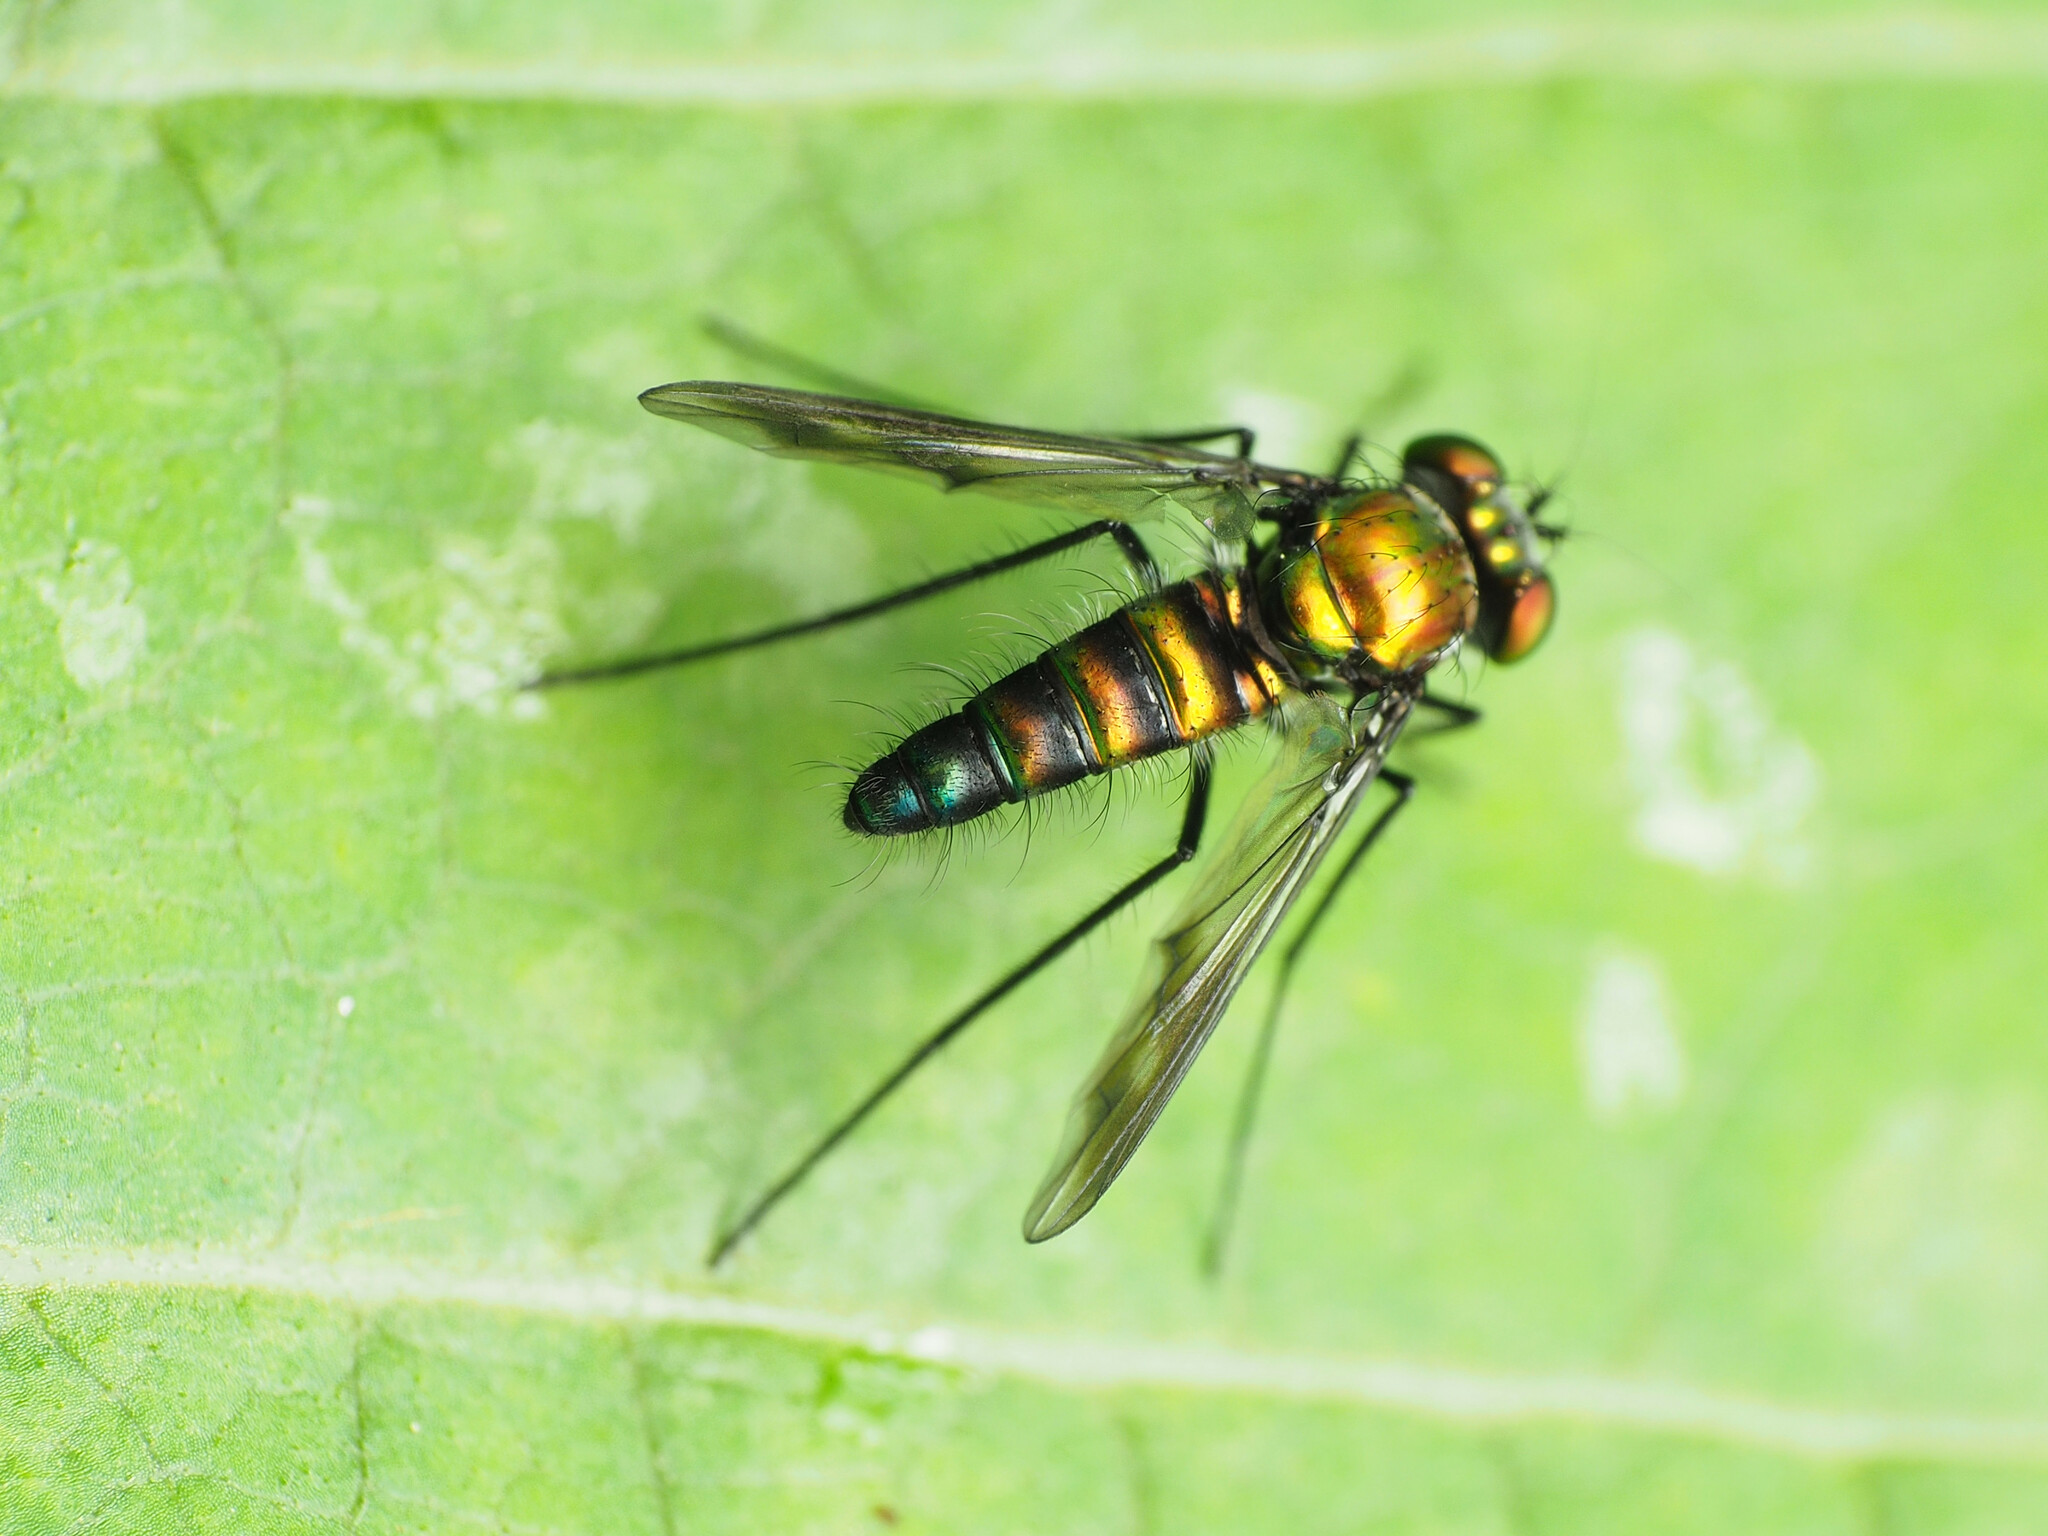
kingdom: Animalia
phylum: Arthropoda
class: Insecta
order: Diptera
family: Dolichopodidae
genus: Condylostylus
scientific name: Condylostylus patibulatus
